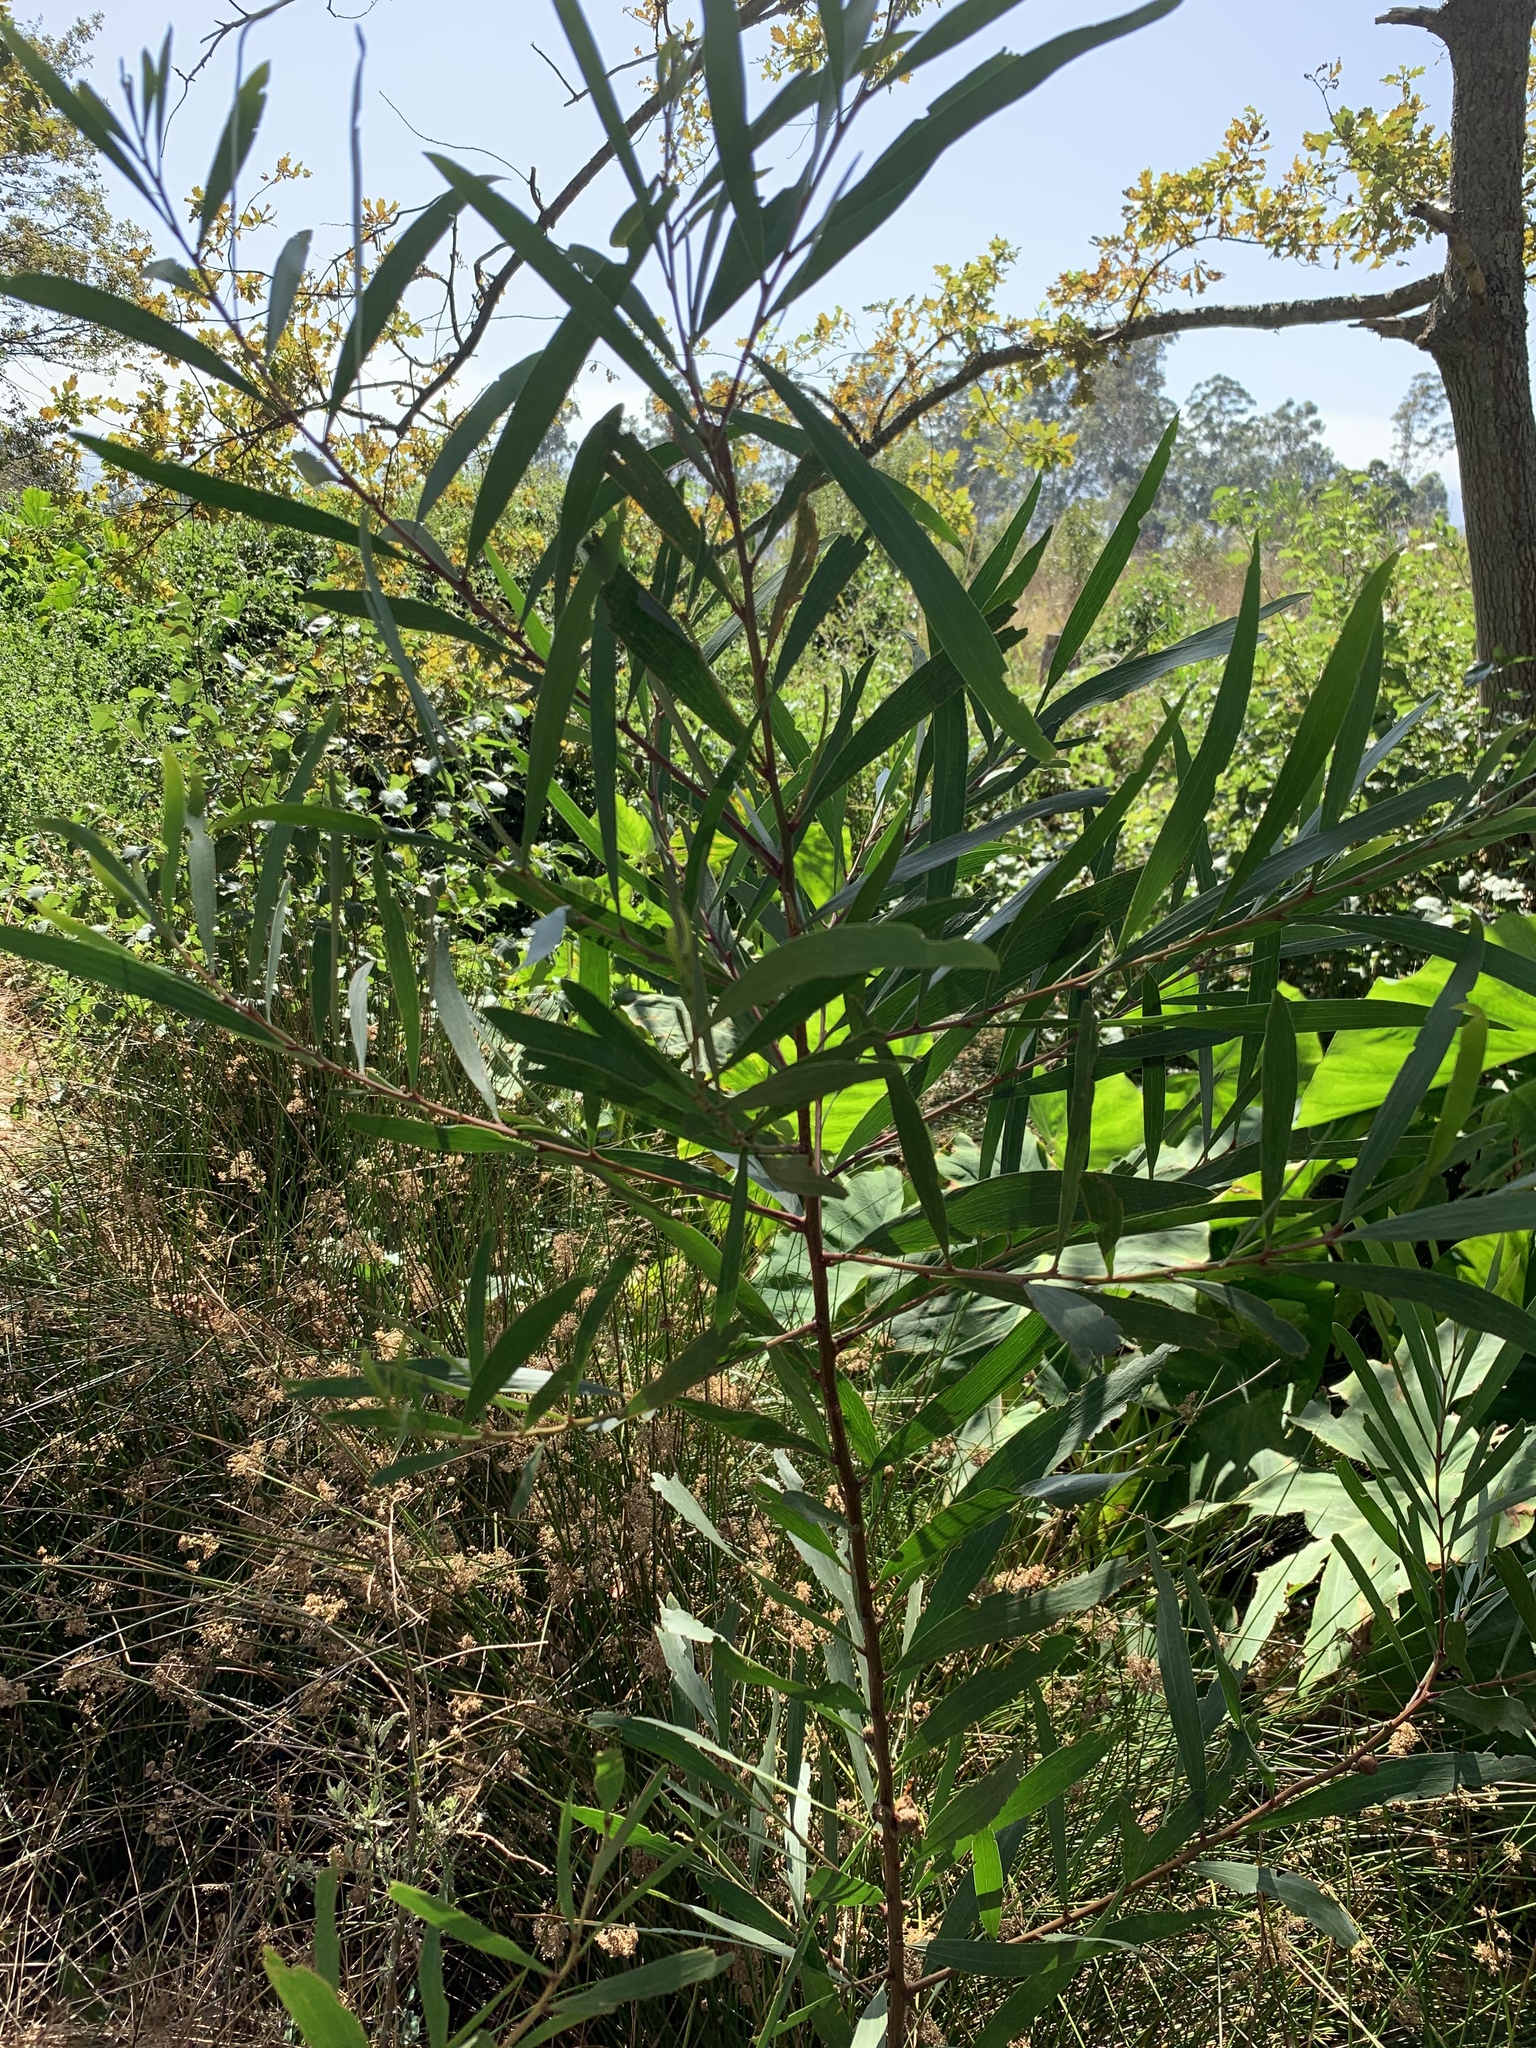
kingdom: Plantae
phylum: Tracheophyta
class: Magnoliopsida
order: Fabales
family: Fabaceae
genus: Acacia
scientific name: Acacia longifolia
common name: Sydney golden wattle
